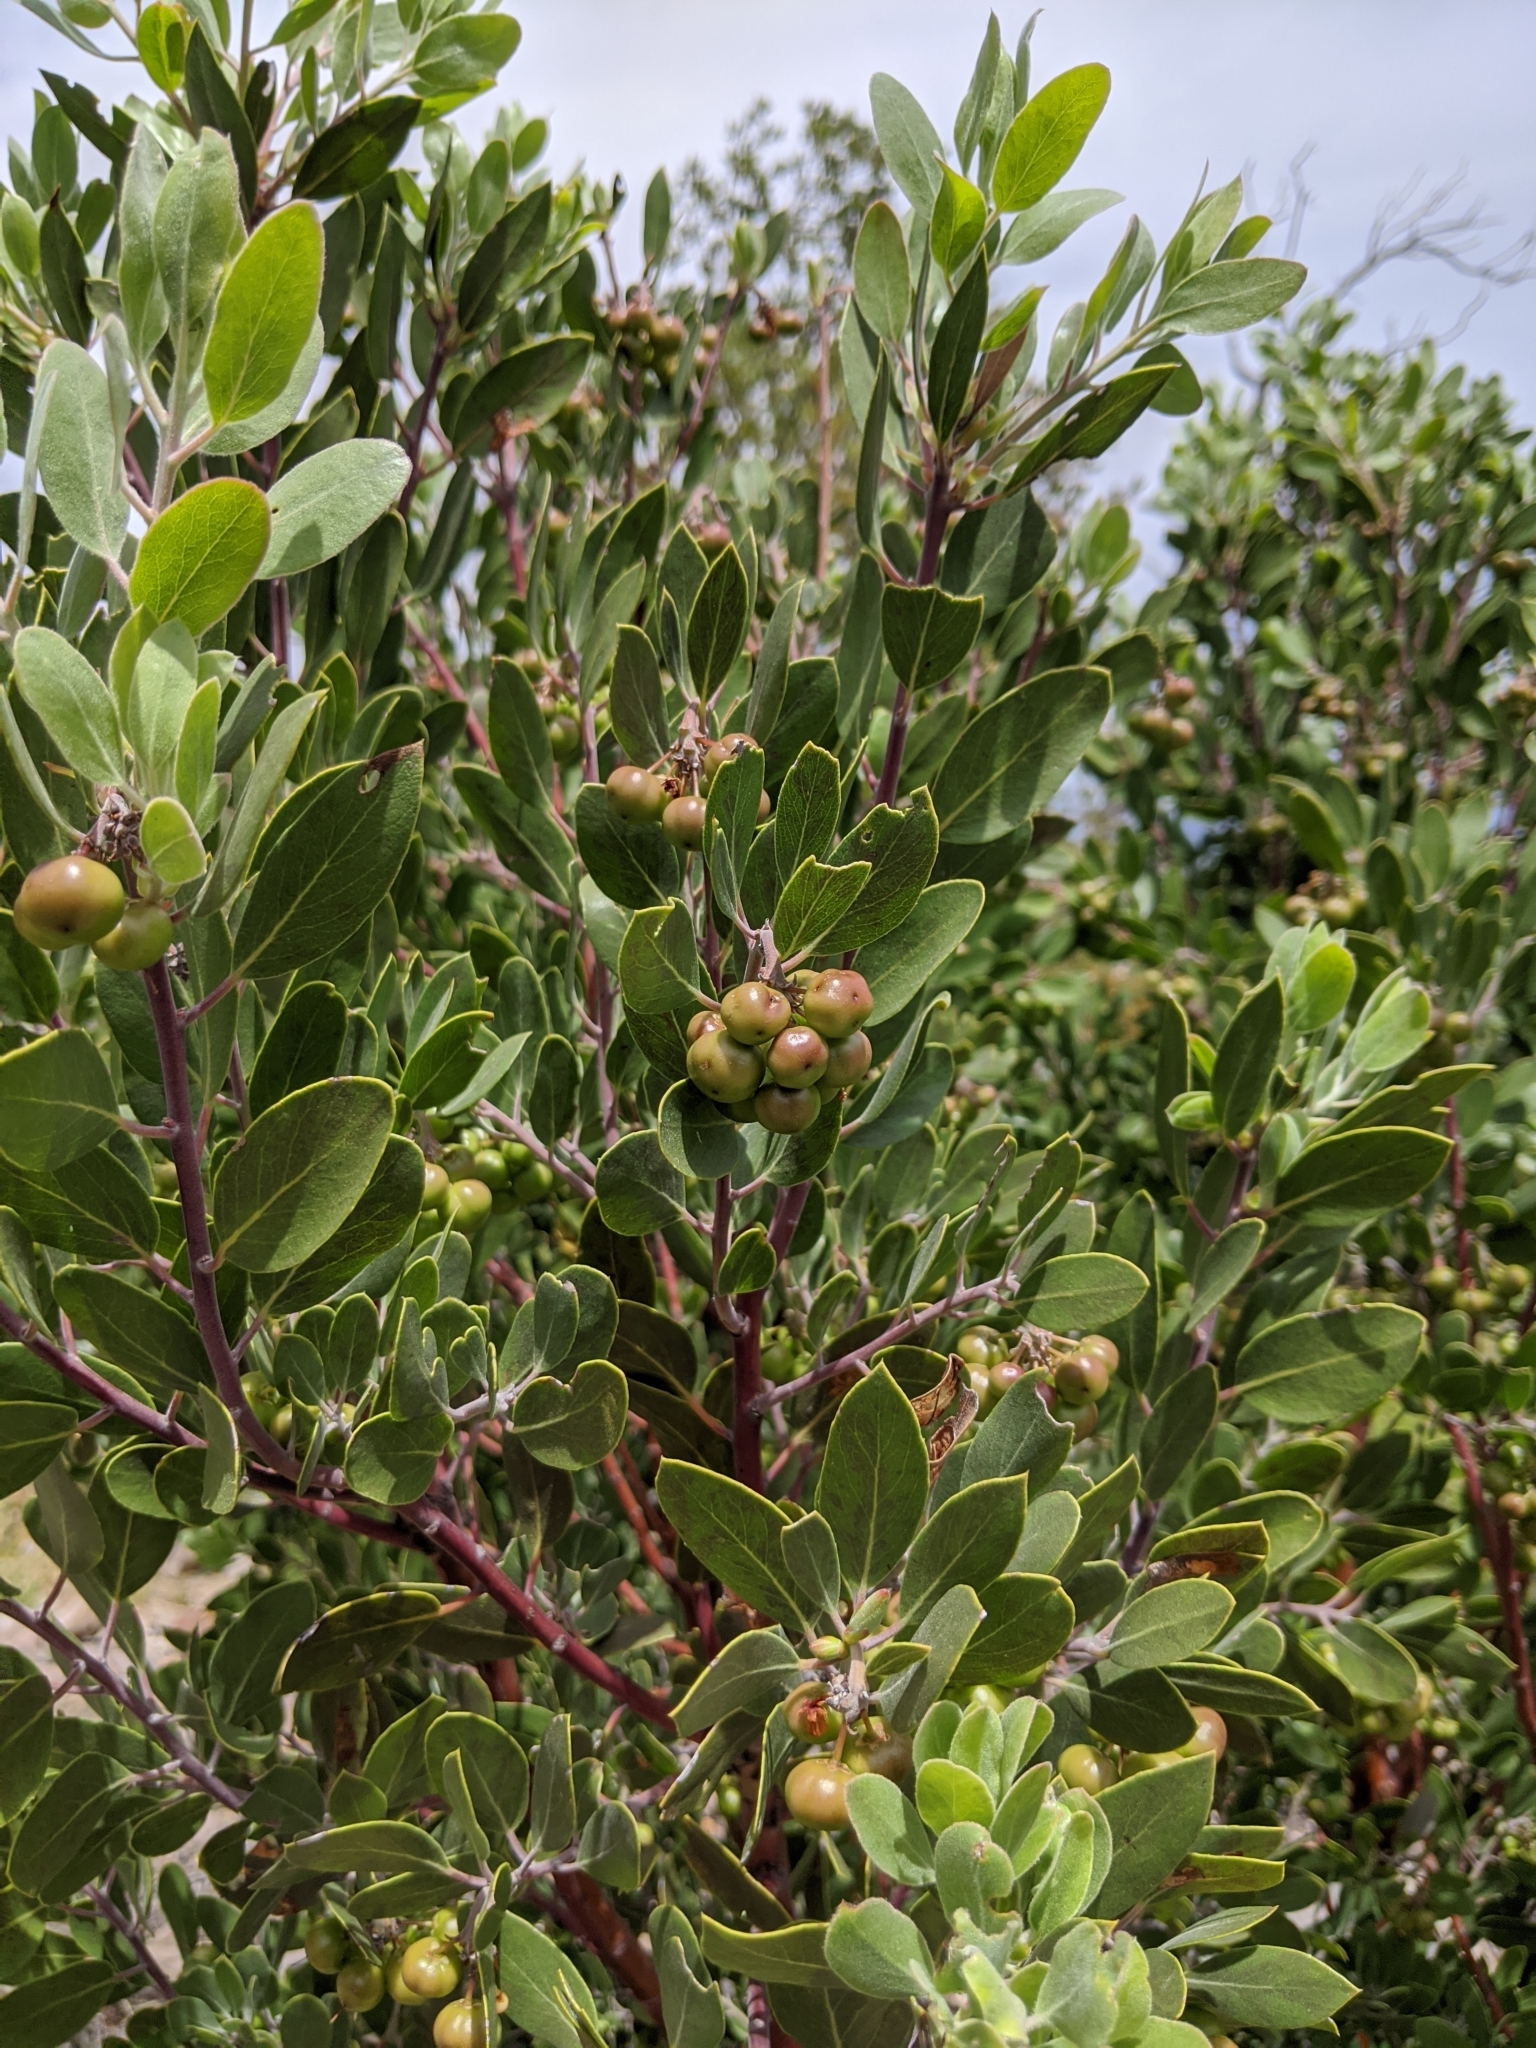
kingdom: Plantae
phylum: Tracheophyta
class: Magnoliopsida
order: Ericales
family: Ericaceae
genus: Arctostaphylos
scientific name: Arctostaphylos pungens
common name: Mexican manzanita
